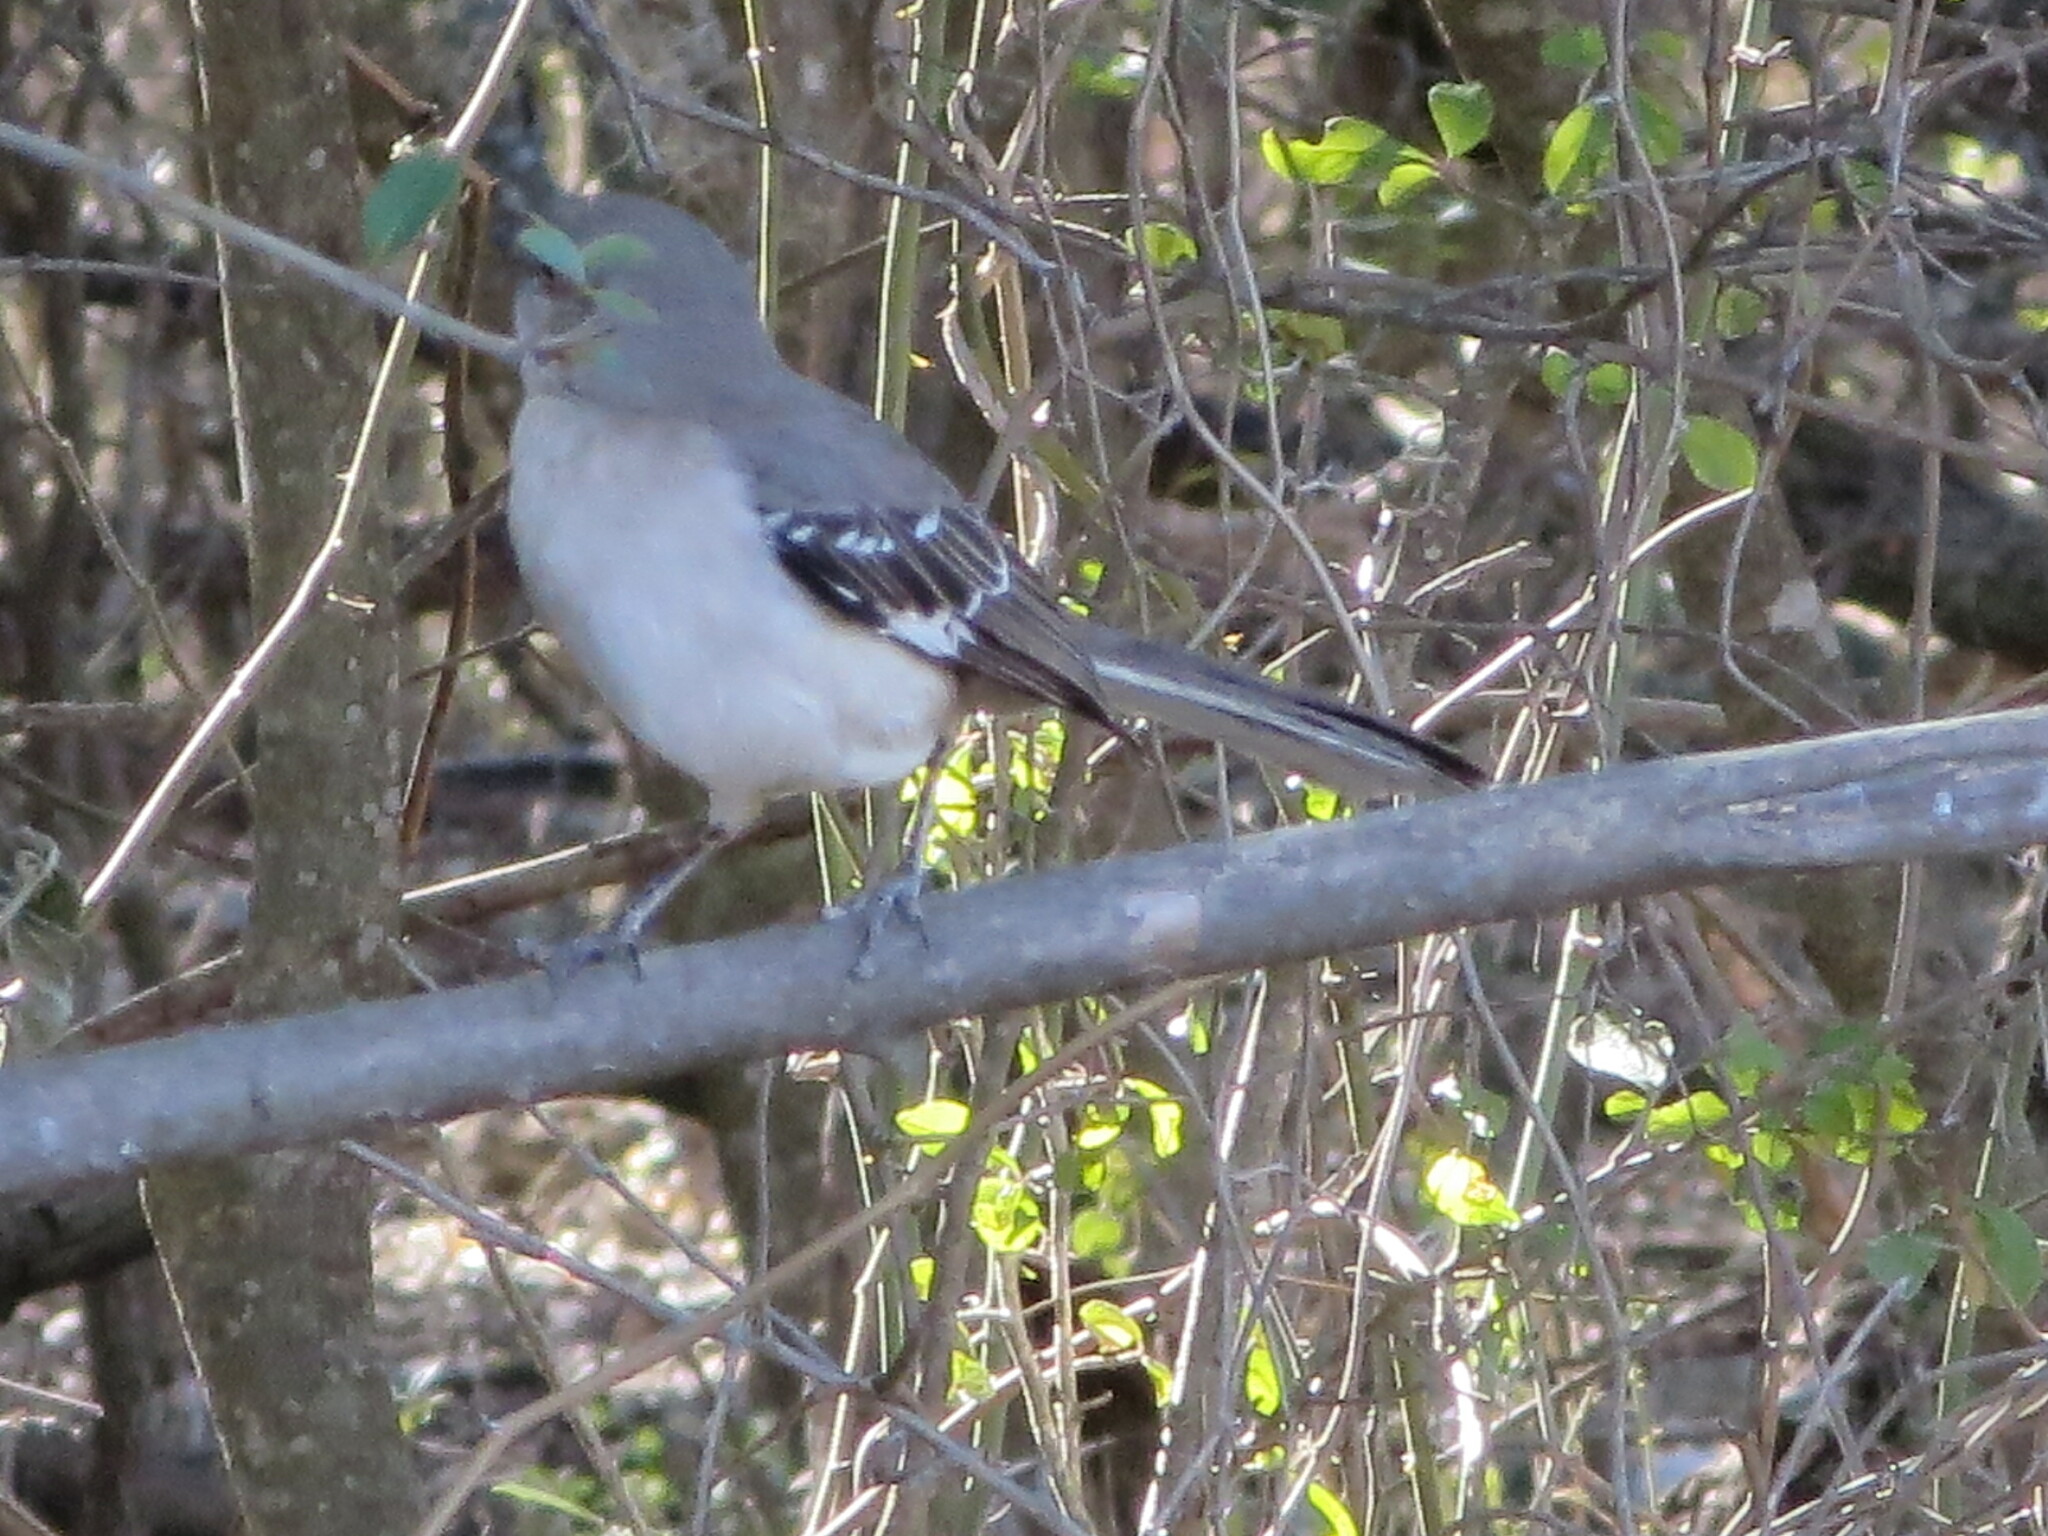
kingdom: Animalia
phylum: Chordata
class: Aves
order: Passeriformes
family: Mimidae
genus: Mimus
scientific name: Mimus polyglottos
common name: Northern mockingbird
